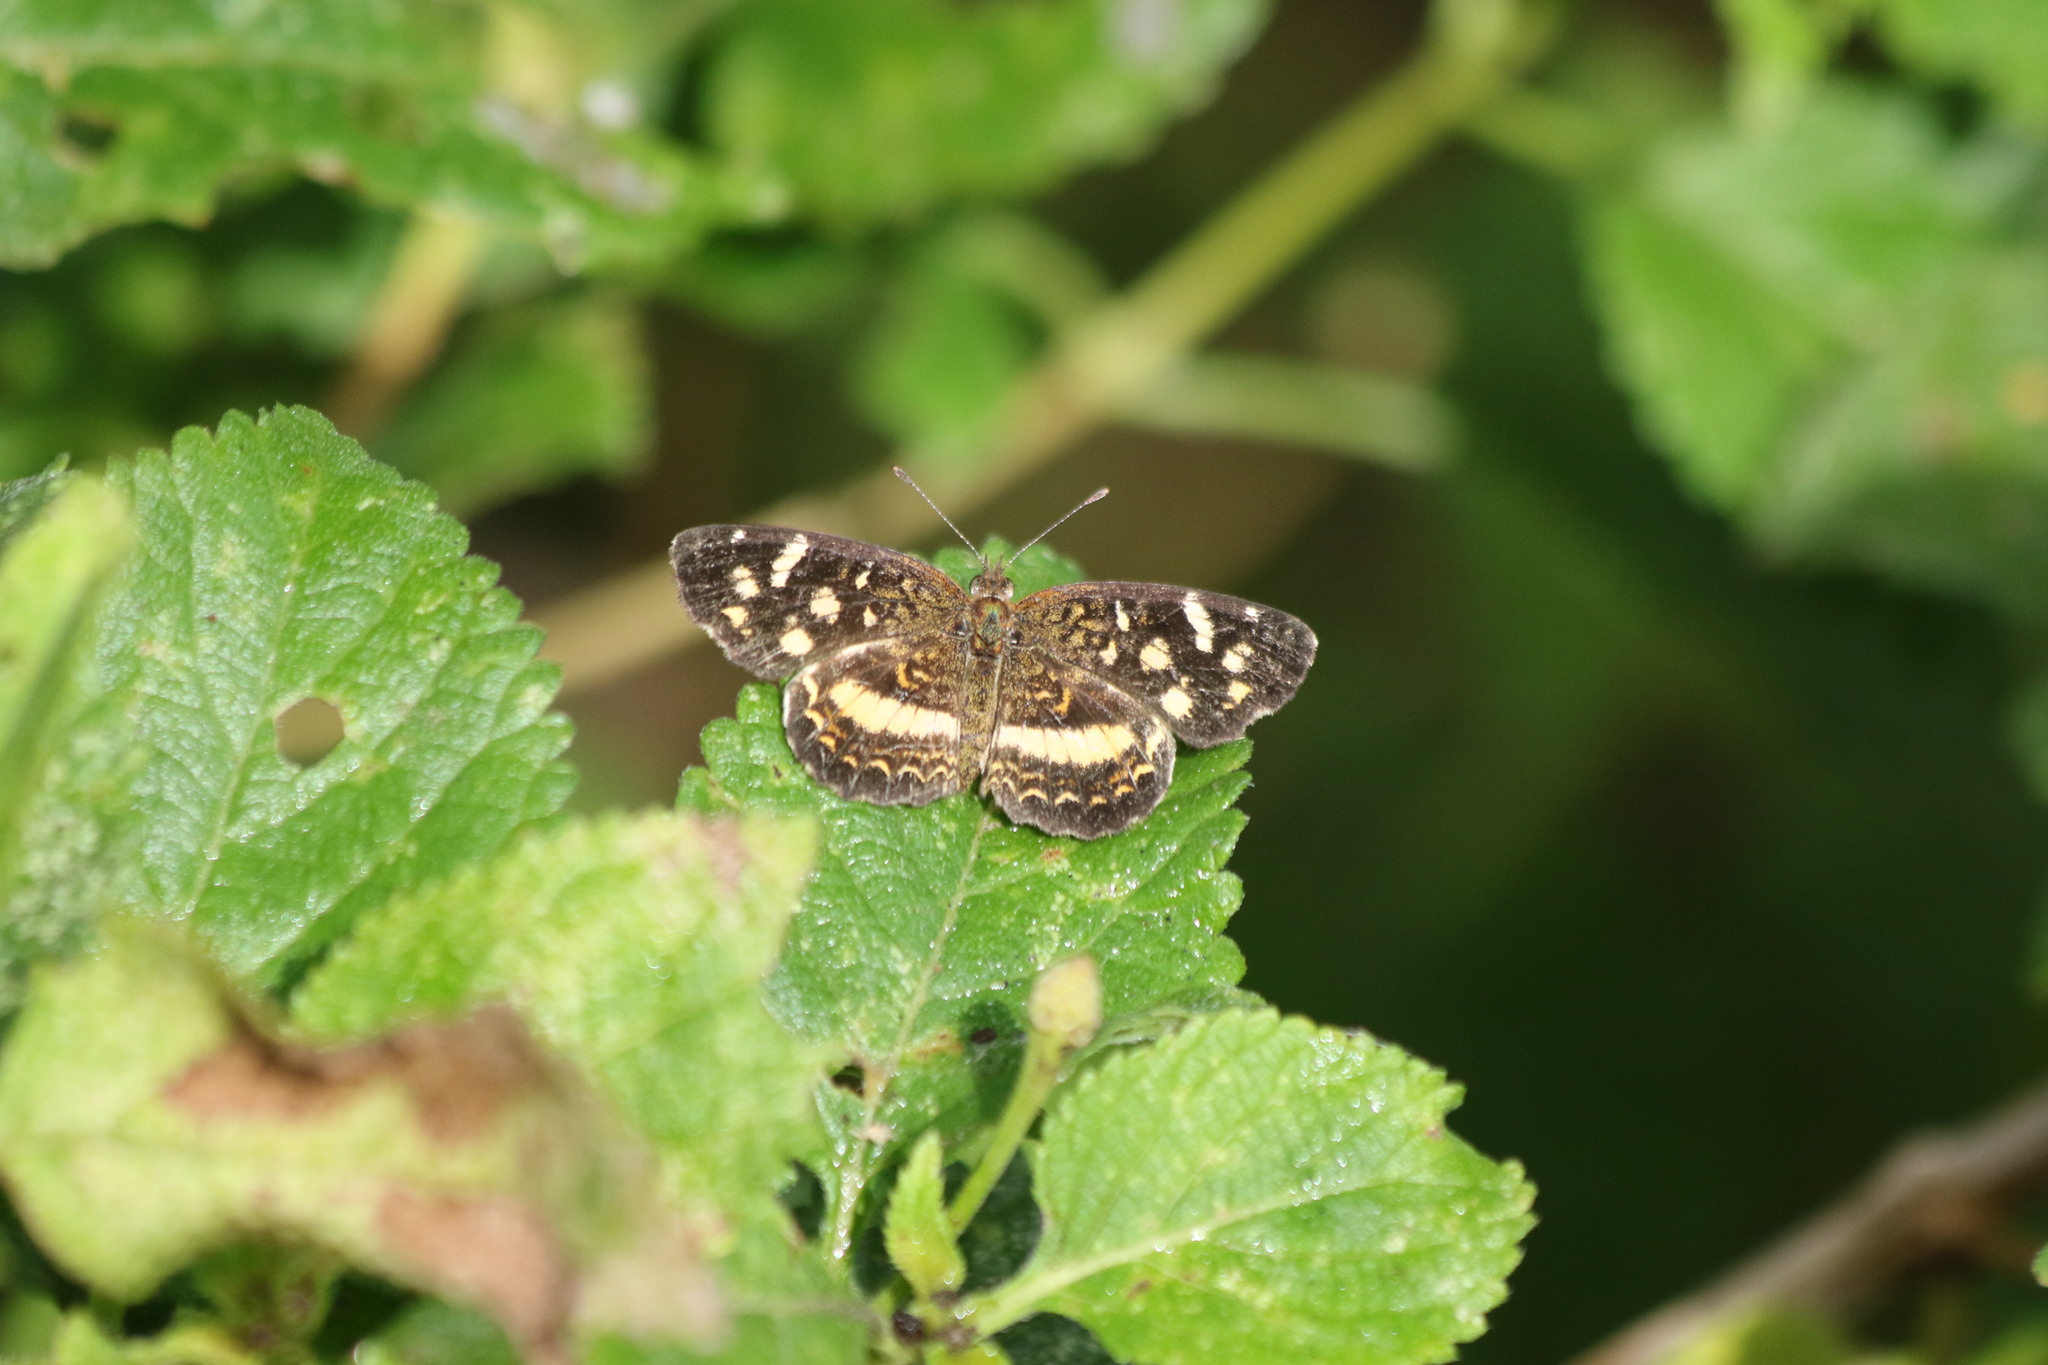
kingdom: Animalia
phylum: Arthropoda
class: Insecta
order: Lepidoptera
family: Nymphalidae
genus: Anthanassa
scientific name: Anthanassa tulcis
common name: Pale-banded crescent
